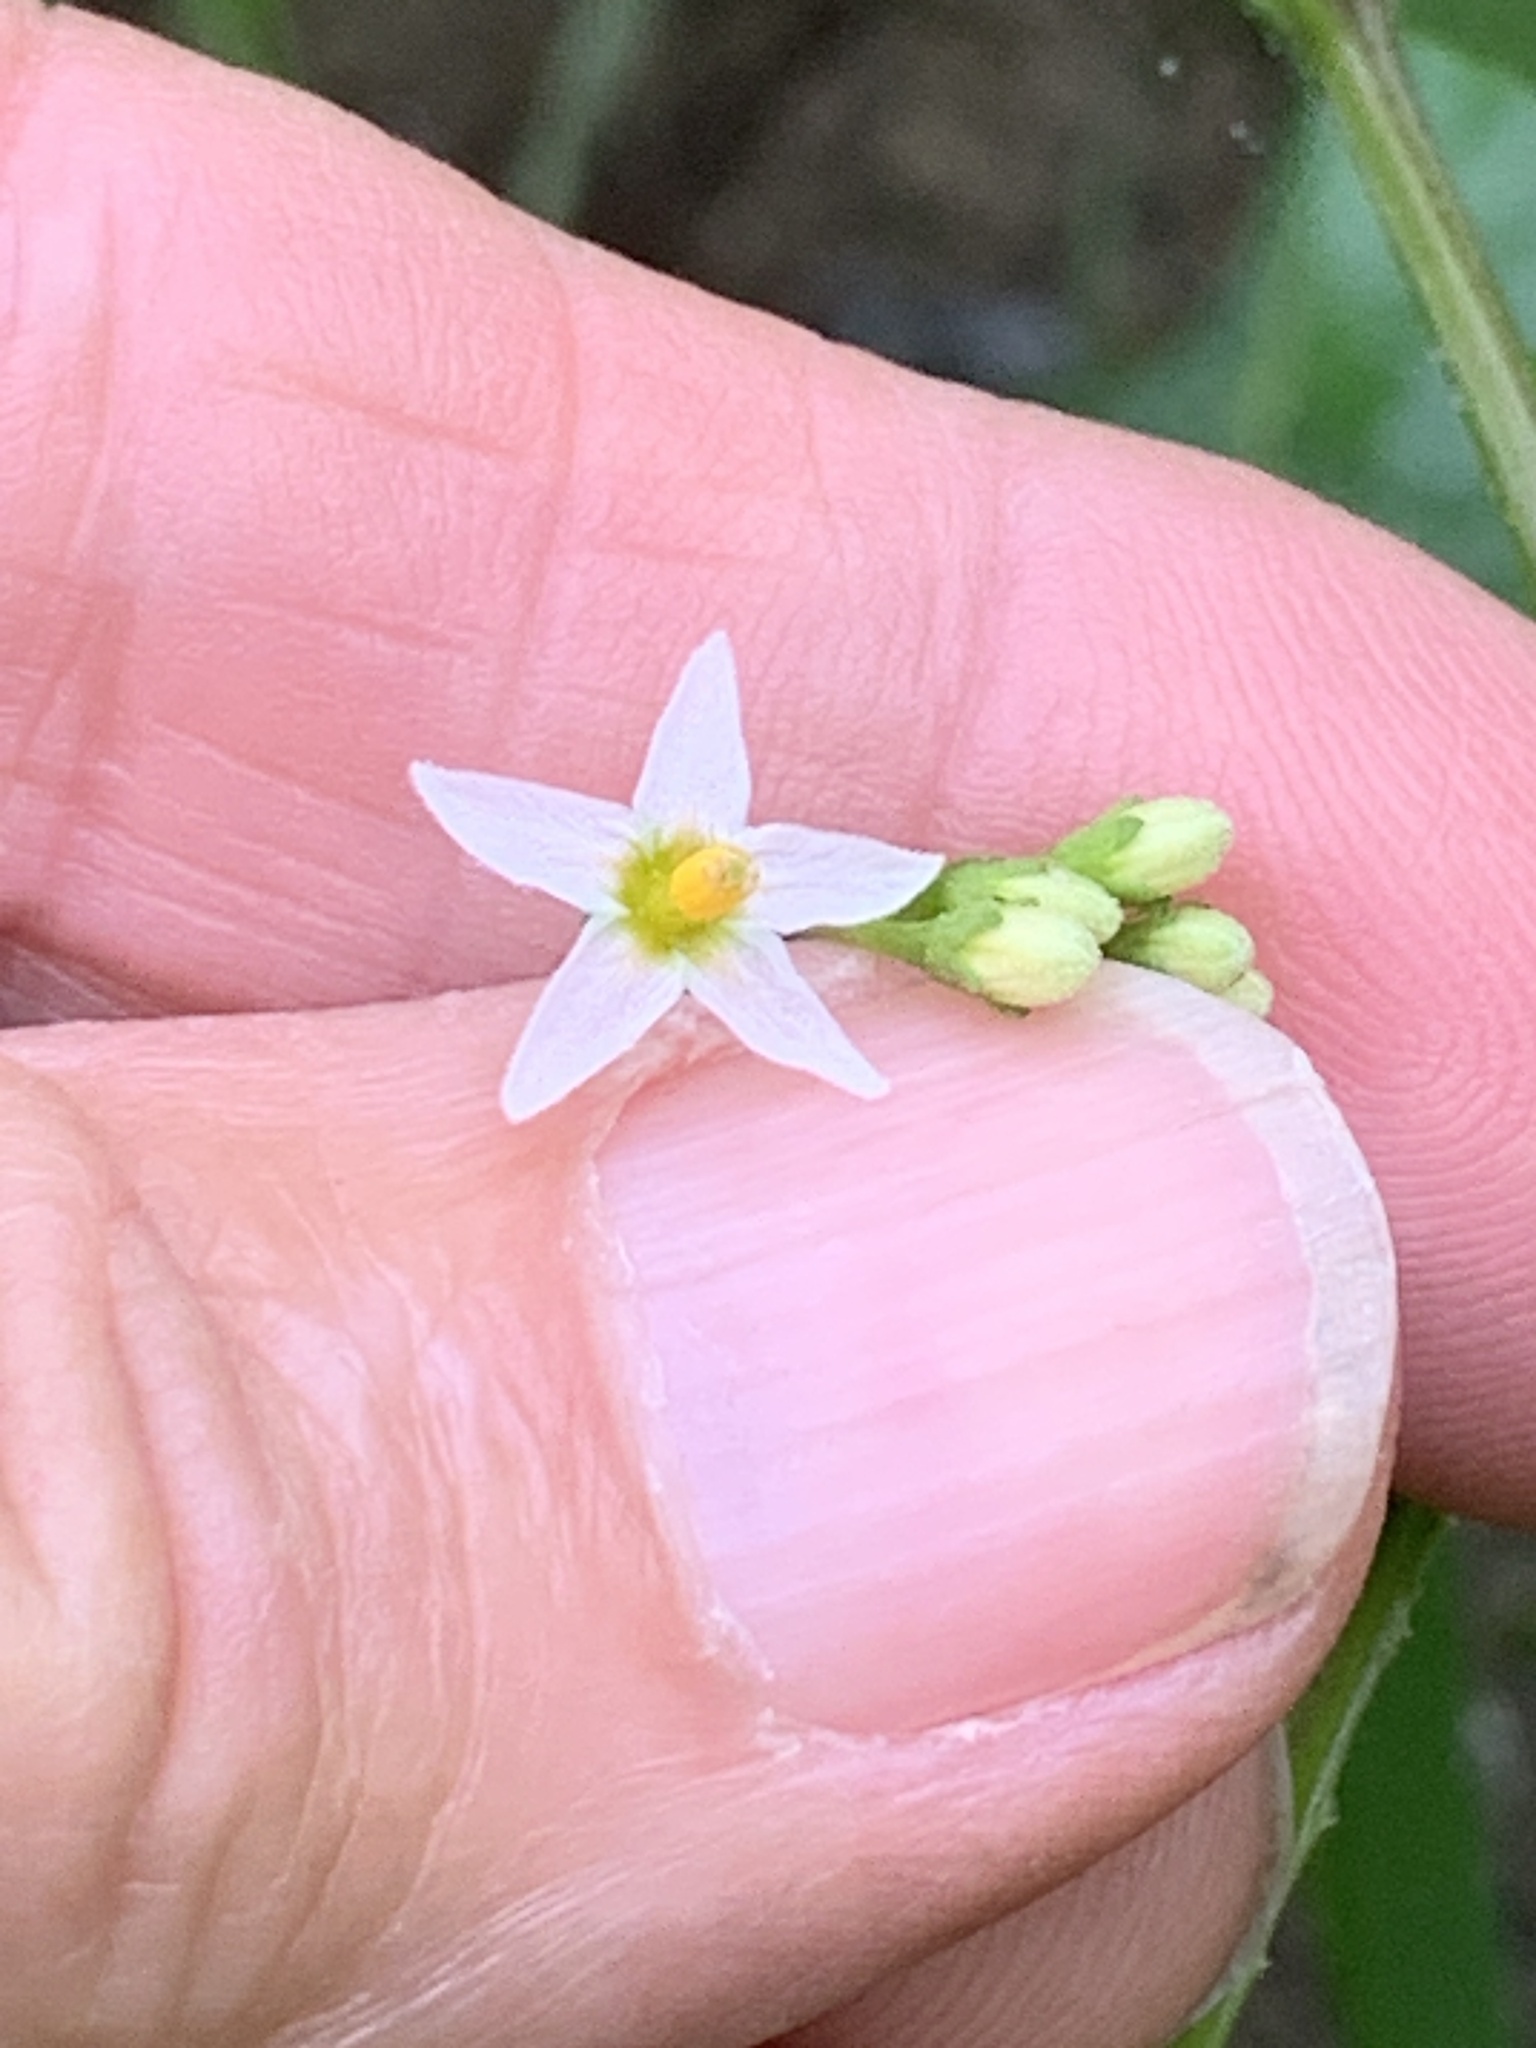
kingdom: Plantae
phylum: Tracheophyta
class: Magnoliopsida
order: Solanales
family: Solanaceae
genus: Solanum
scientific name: Solanum emulans
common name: Eastern black nightshade
